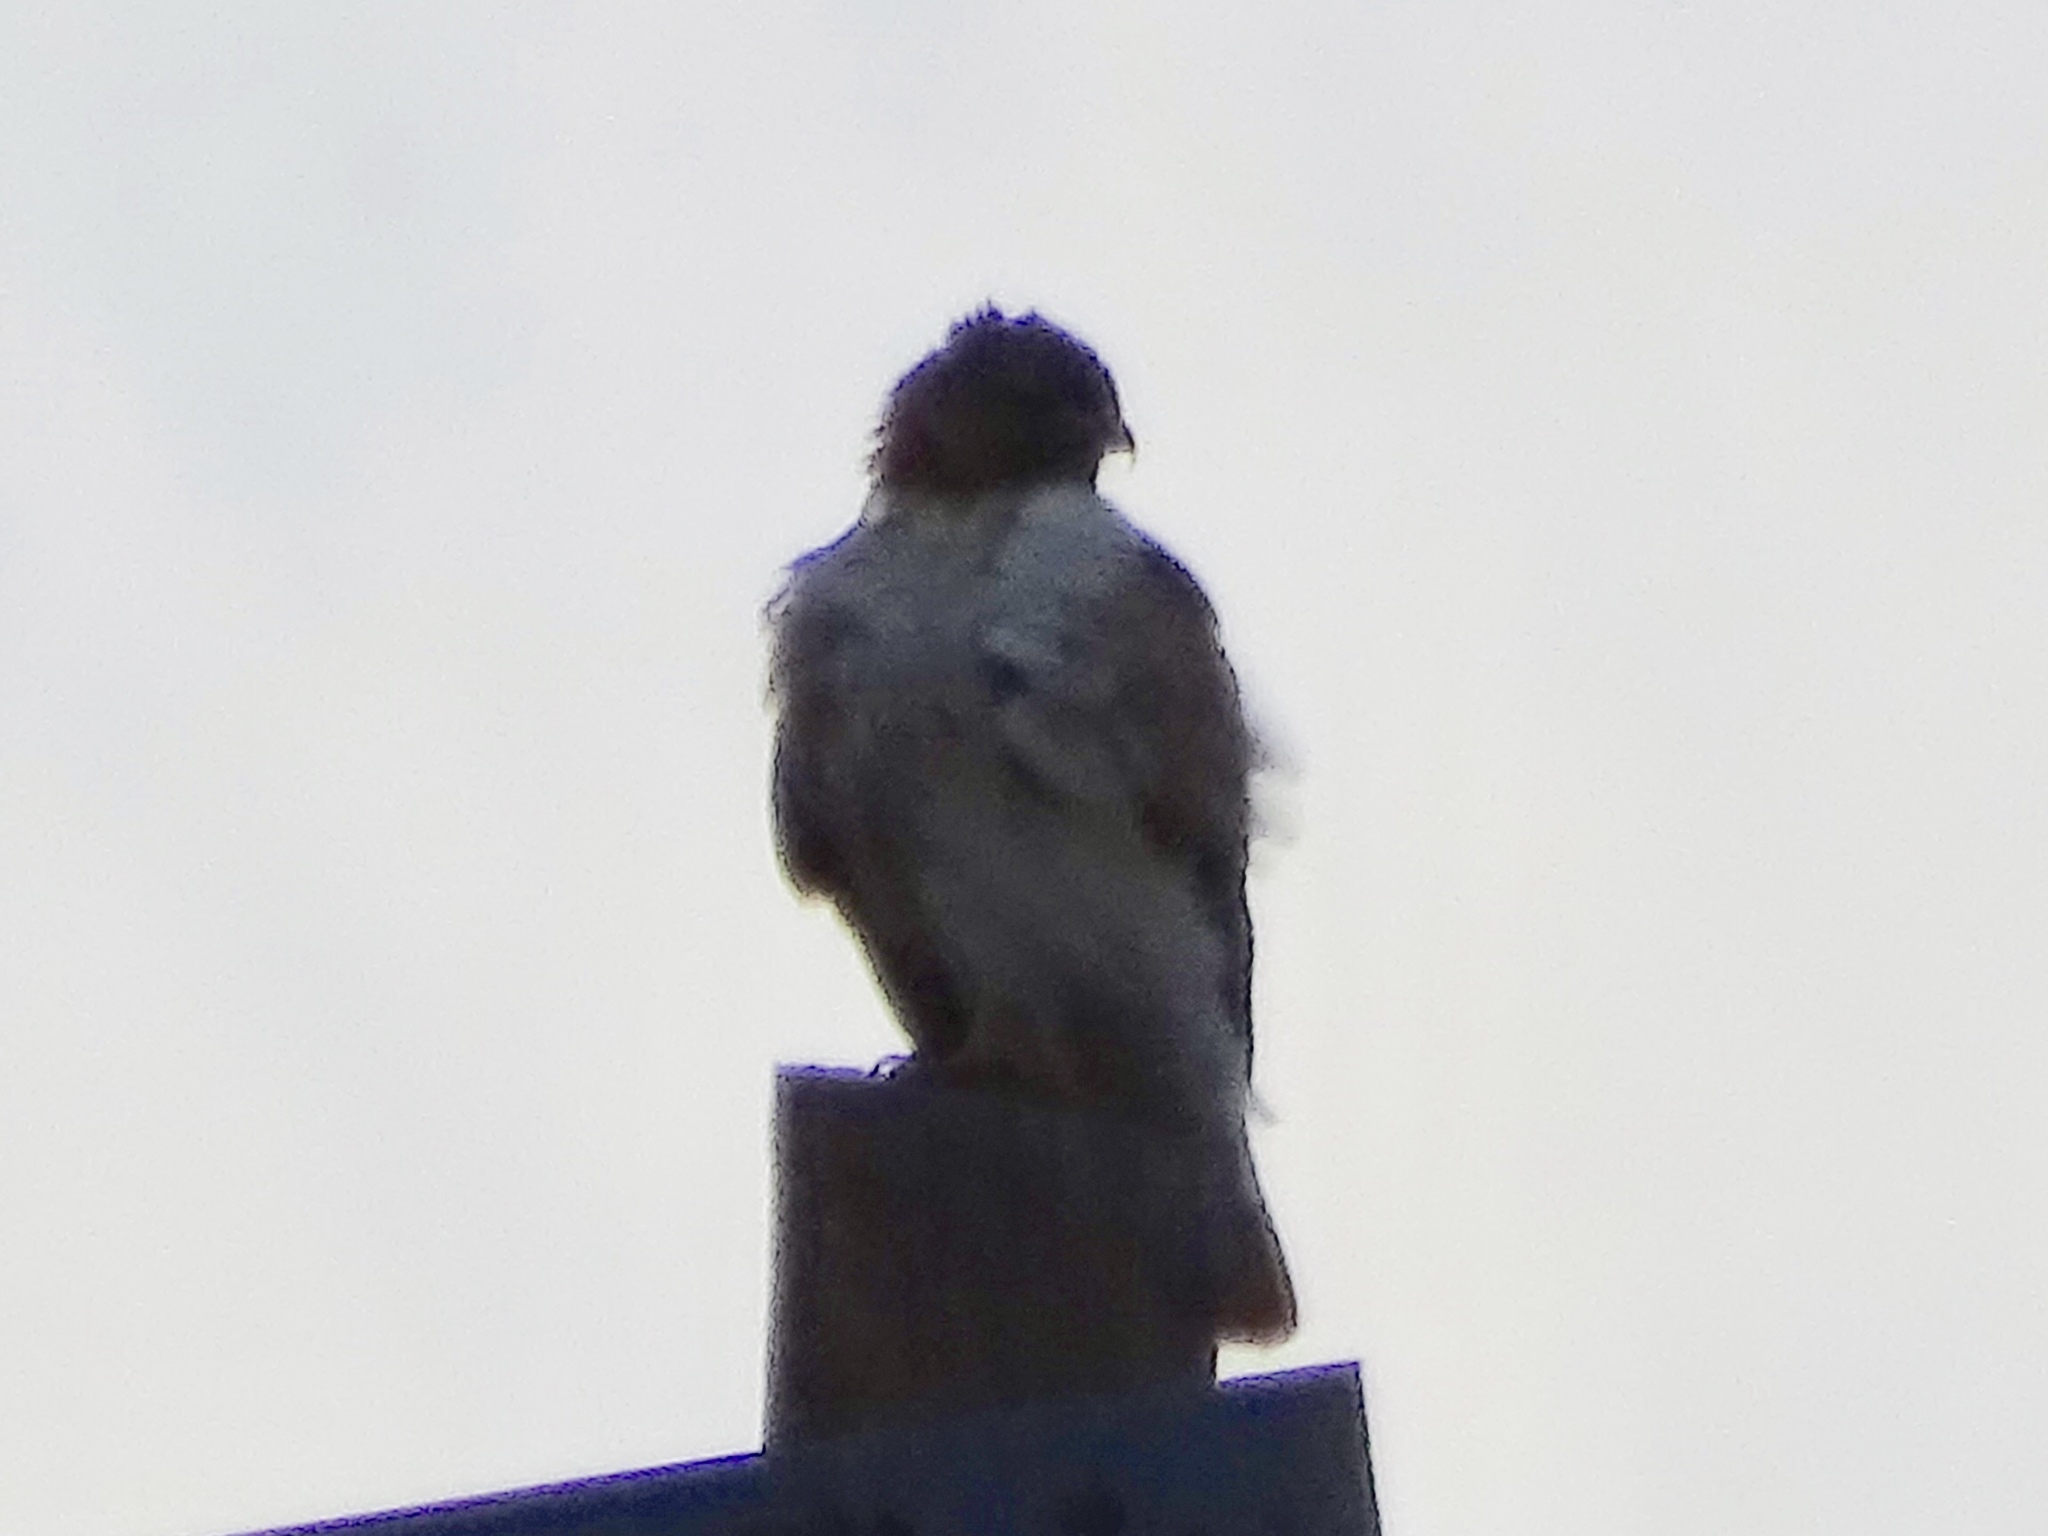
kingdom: Animalia
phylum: Chordata
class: Aves
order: Accipitriformes
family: Accipitridae
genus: Buteo
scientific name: Buteo jamaicensis
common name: Red-tailed hawk
